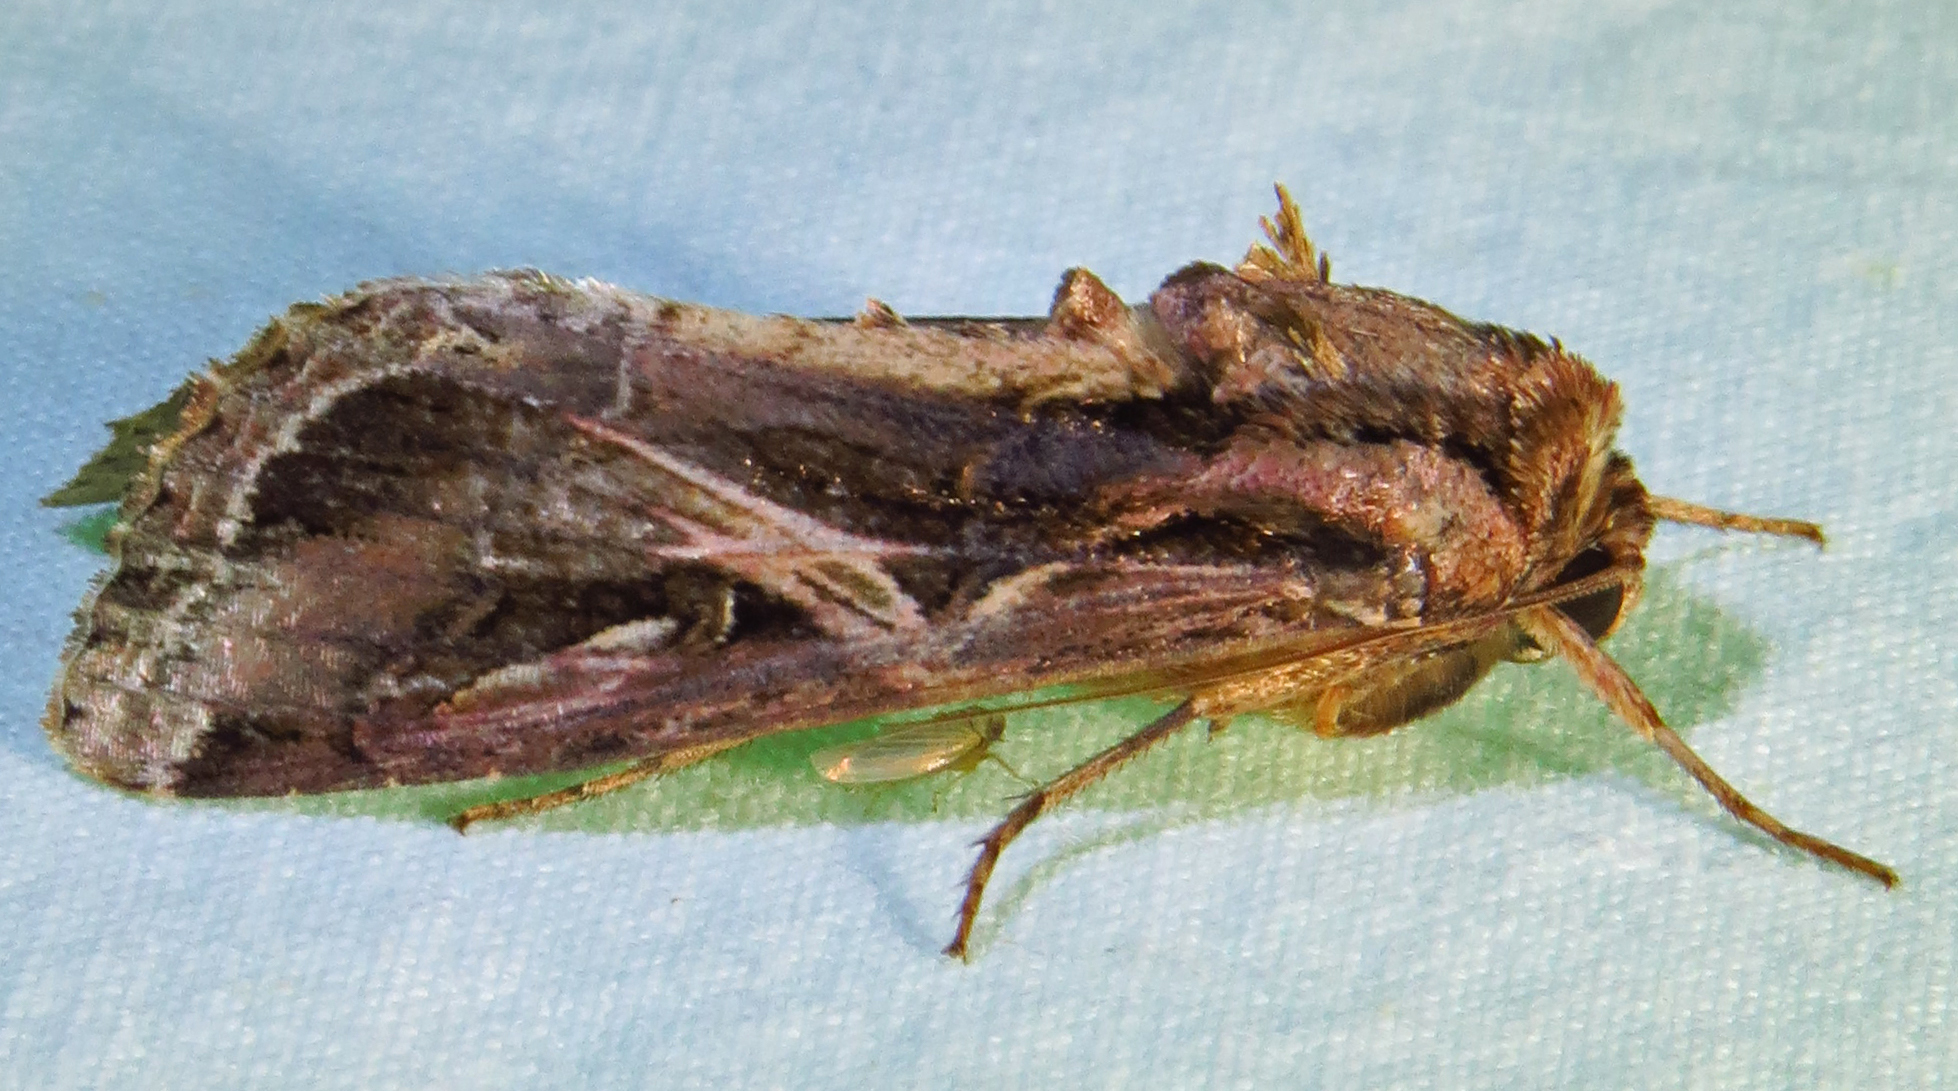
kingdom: Animalia
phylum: Arthropoda
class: Insecta
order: Lepidoptera
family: Noctuidae
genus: Spodoptera
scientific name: Spodoptera dolichos
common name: Sweetpotato armyworm
